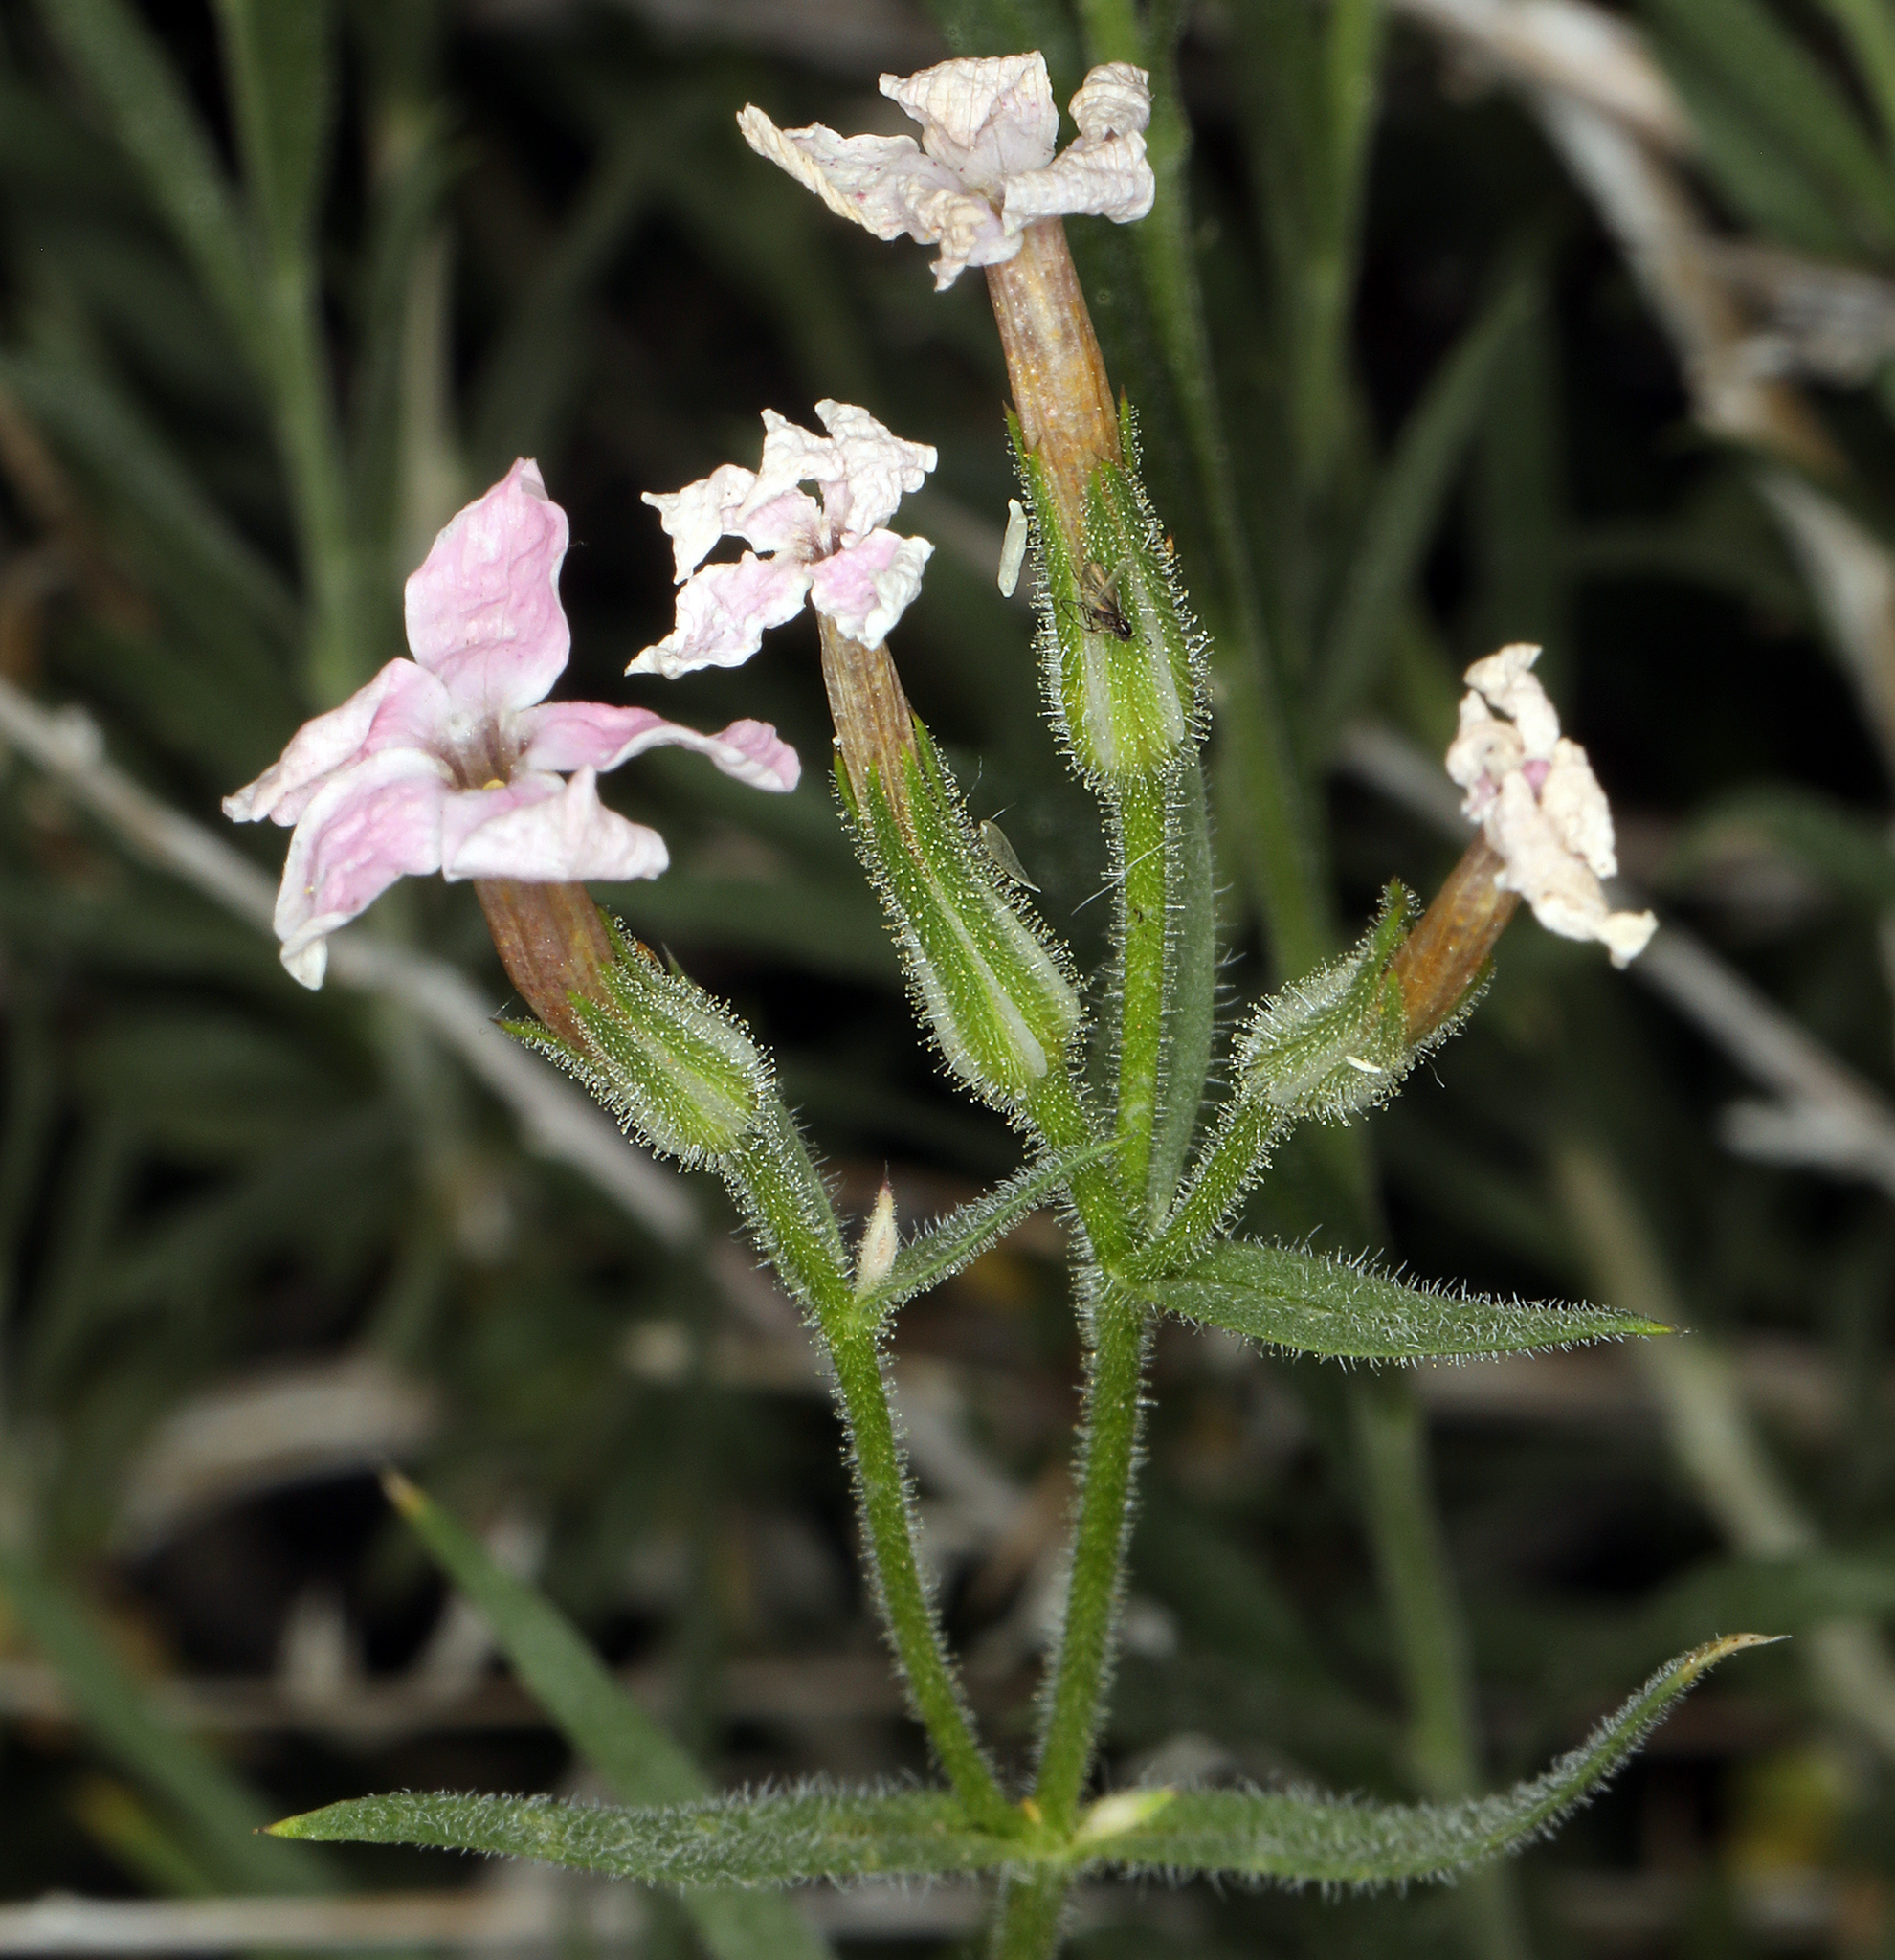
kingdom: Plantae
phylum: Tracheophyta
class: Magnoliopsida
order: Ericales
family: Polemoniaceae
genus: Phlox
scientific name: Phlox longifolia
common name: Longleaf phlox
